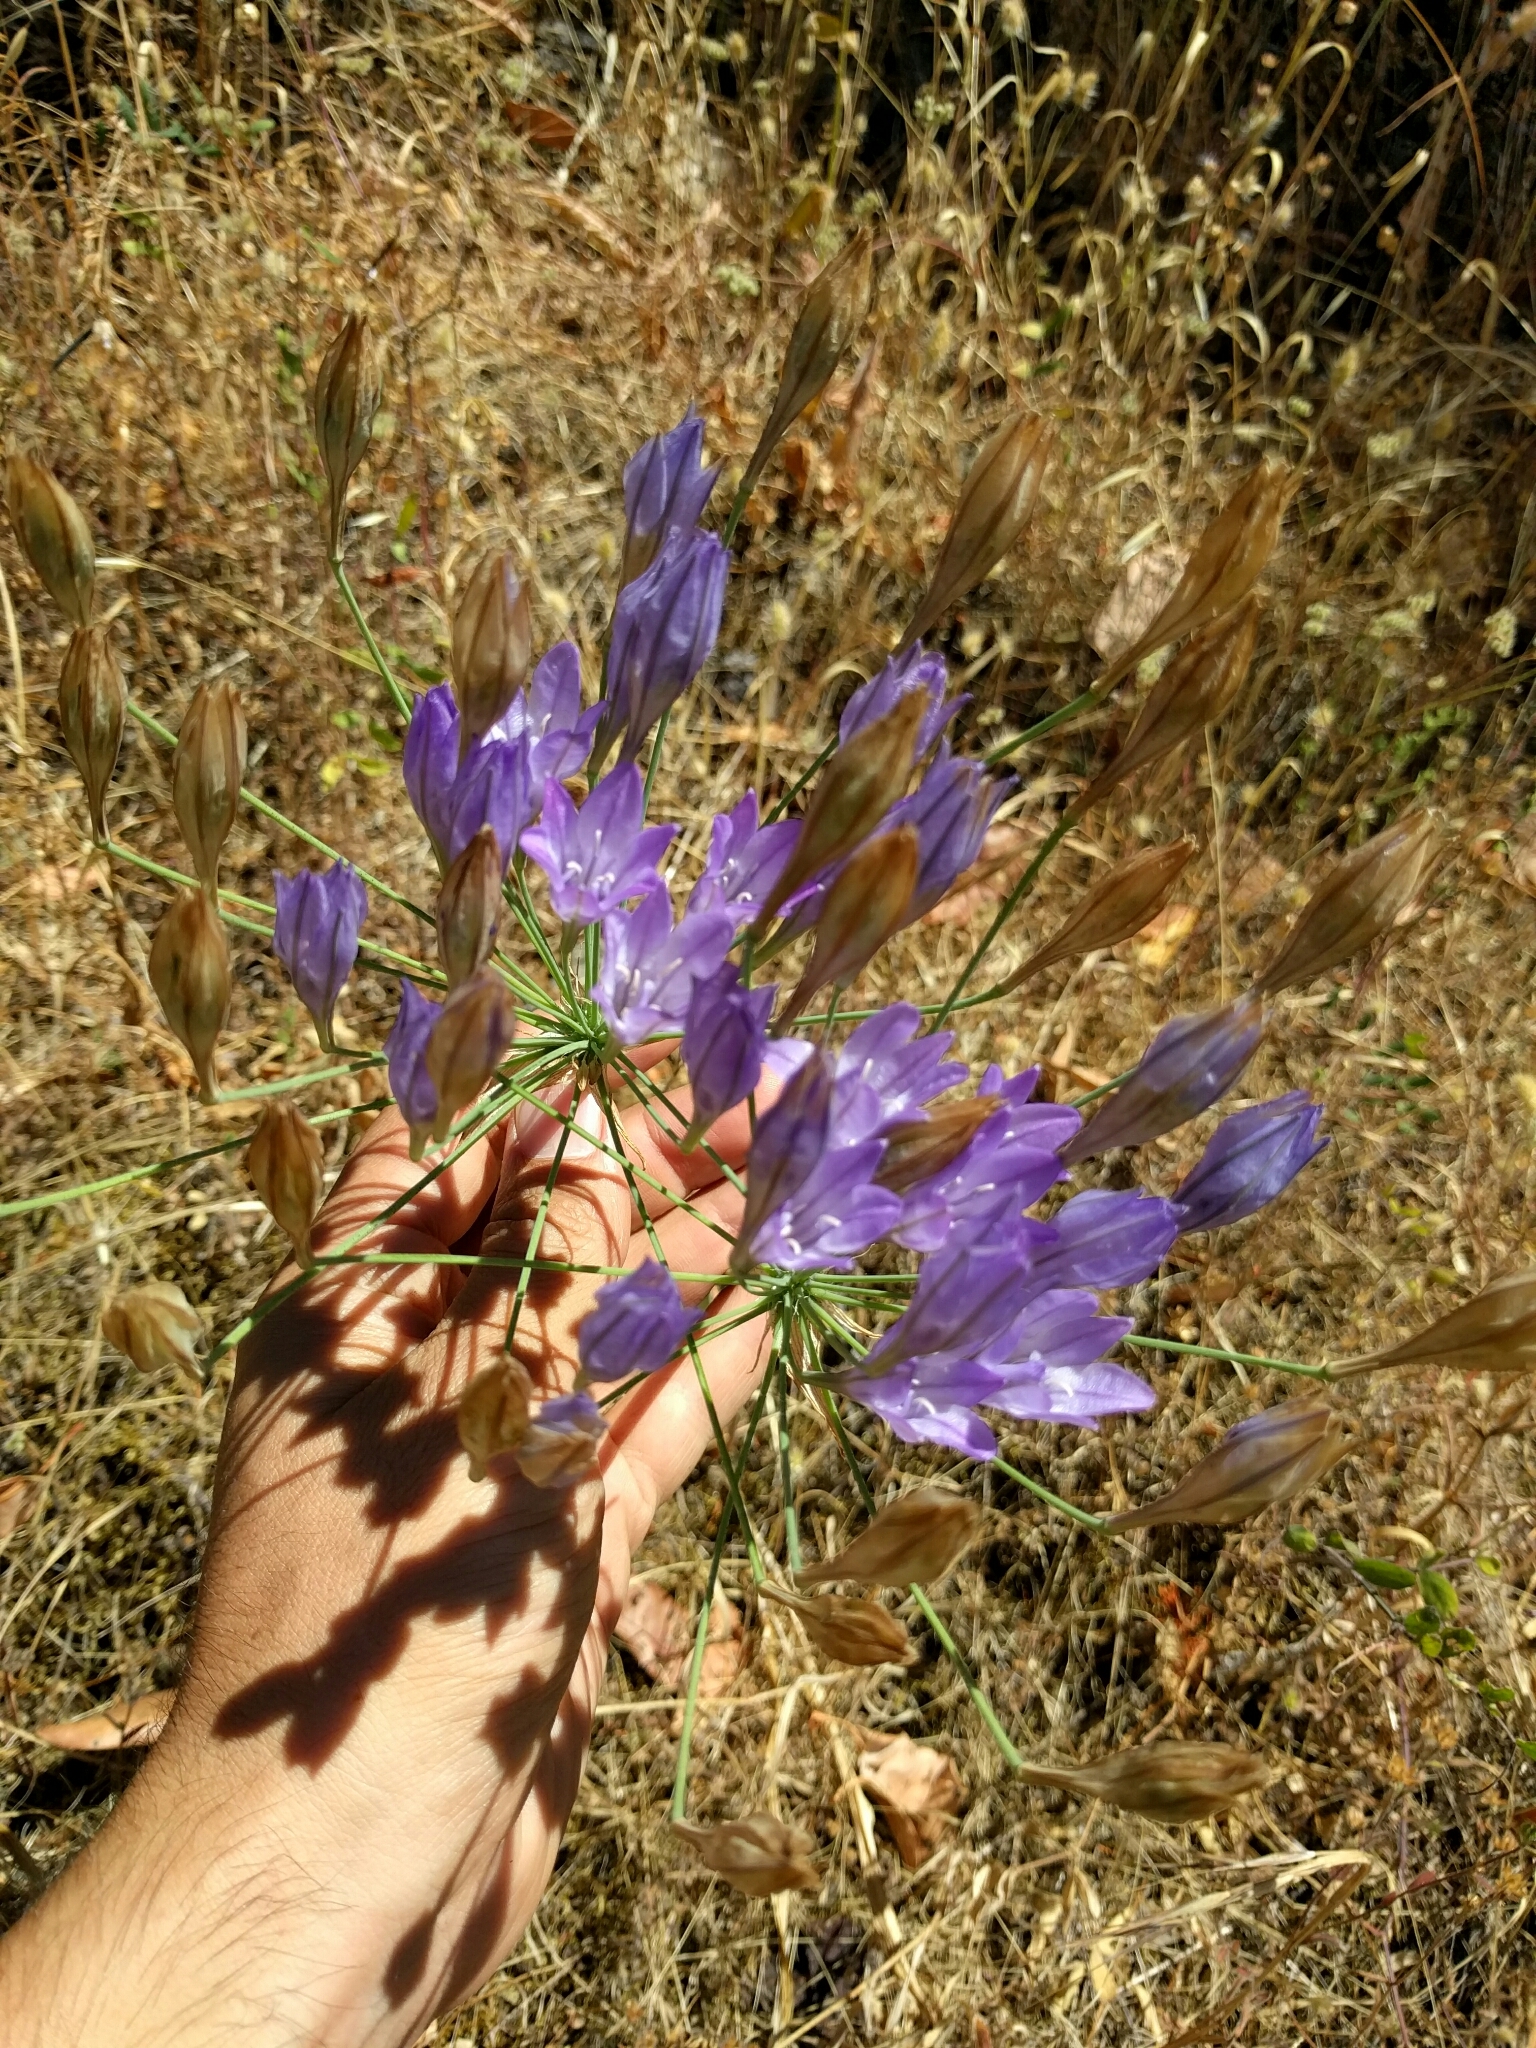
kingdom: Plantae
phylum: Tracheophyta
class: Liliopsida
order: Asparagales
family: Asparagaceae
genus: Triteleia
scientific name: Triteleia laxa
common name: Triplet-lily
